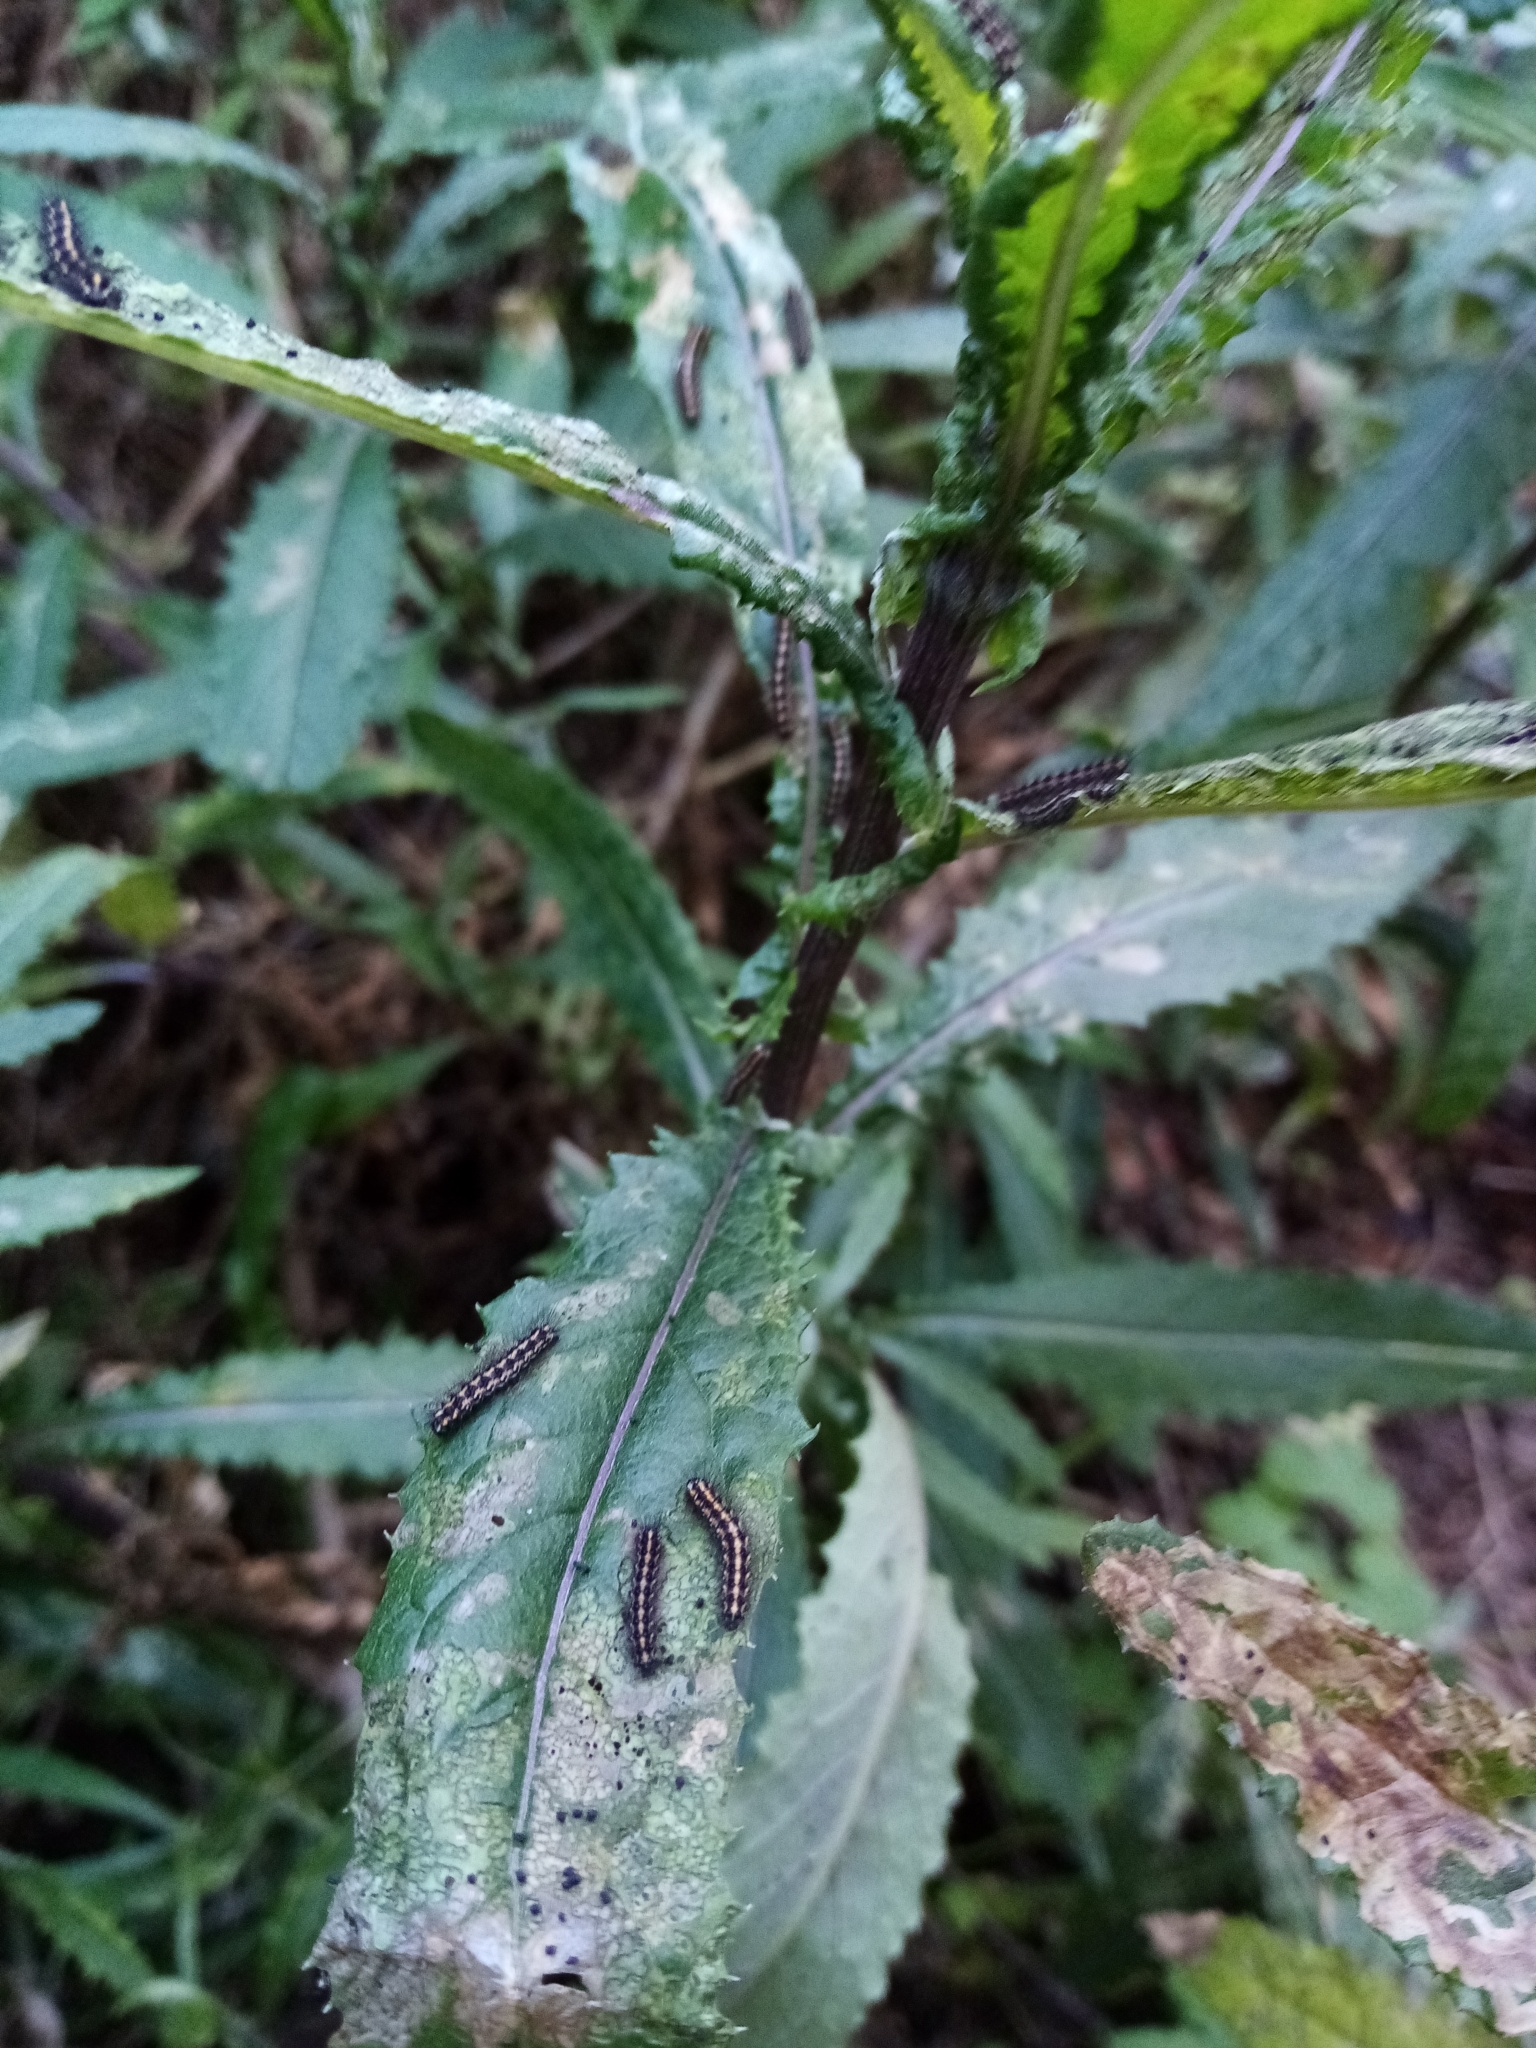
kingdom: Animalia
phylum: Arthropoda
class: Insecta
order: Lepidoptera
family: Erebidae
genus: Nyctemera
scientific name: Nyctemera annulatum
